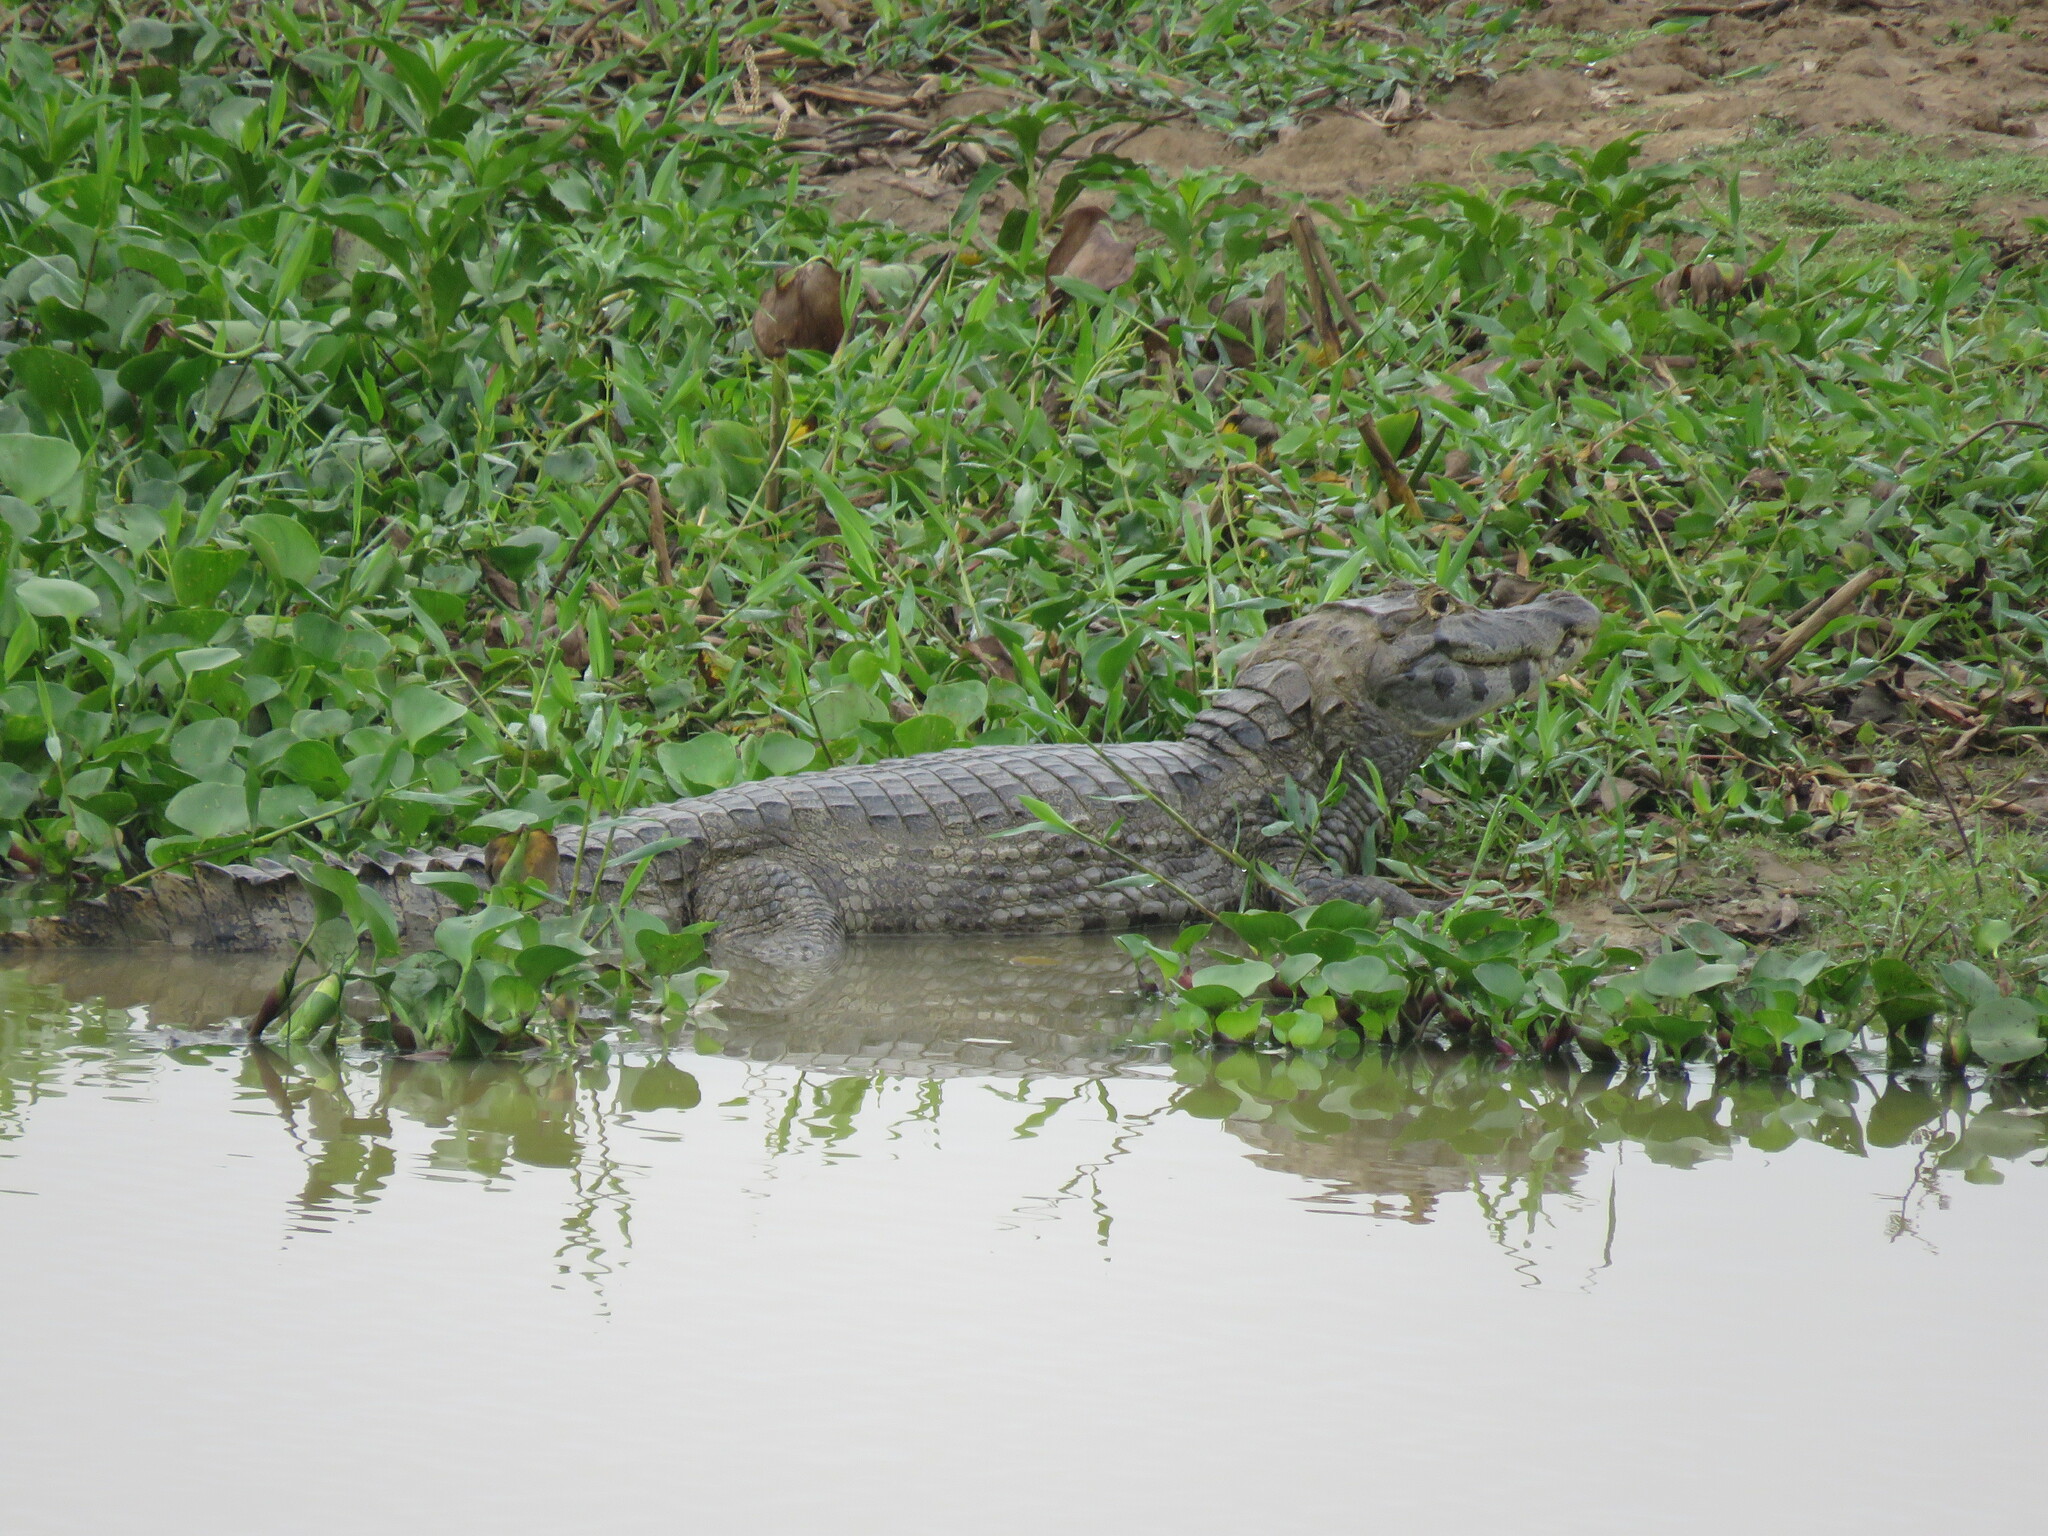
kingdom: Animalia
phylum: Chordata
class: Crocodylia
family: Alligatoridae
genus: Caiman
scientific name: Caiman yacare
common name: Yacare caiman
